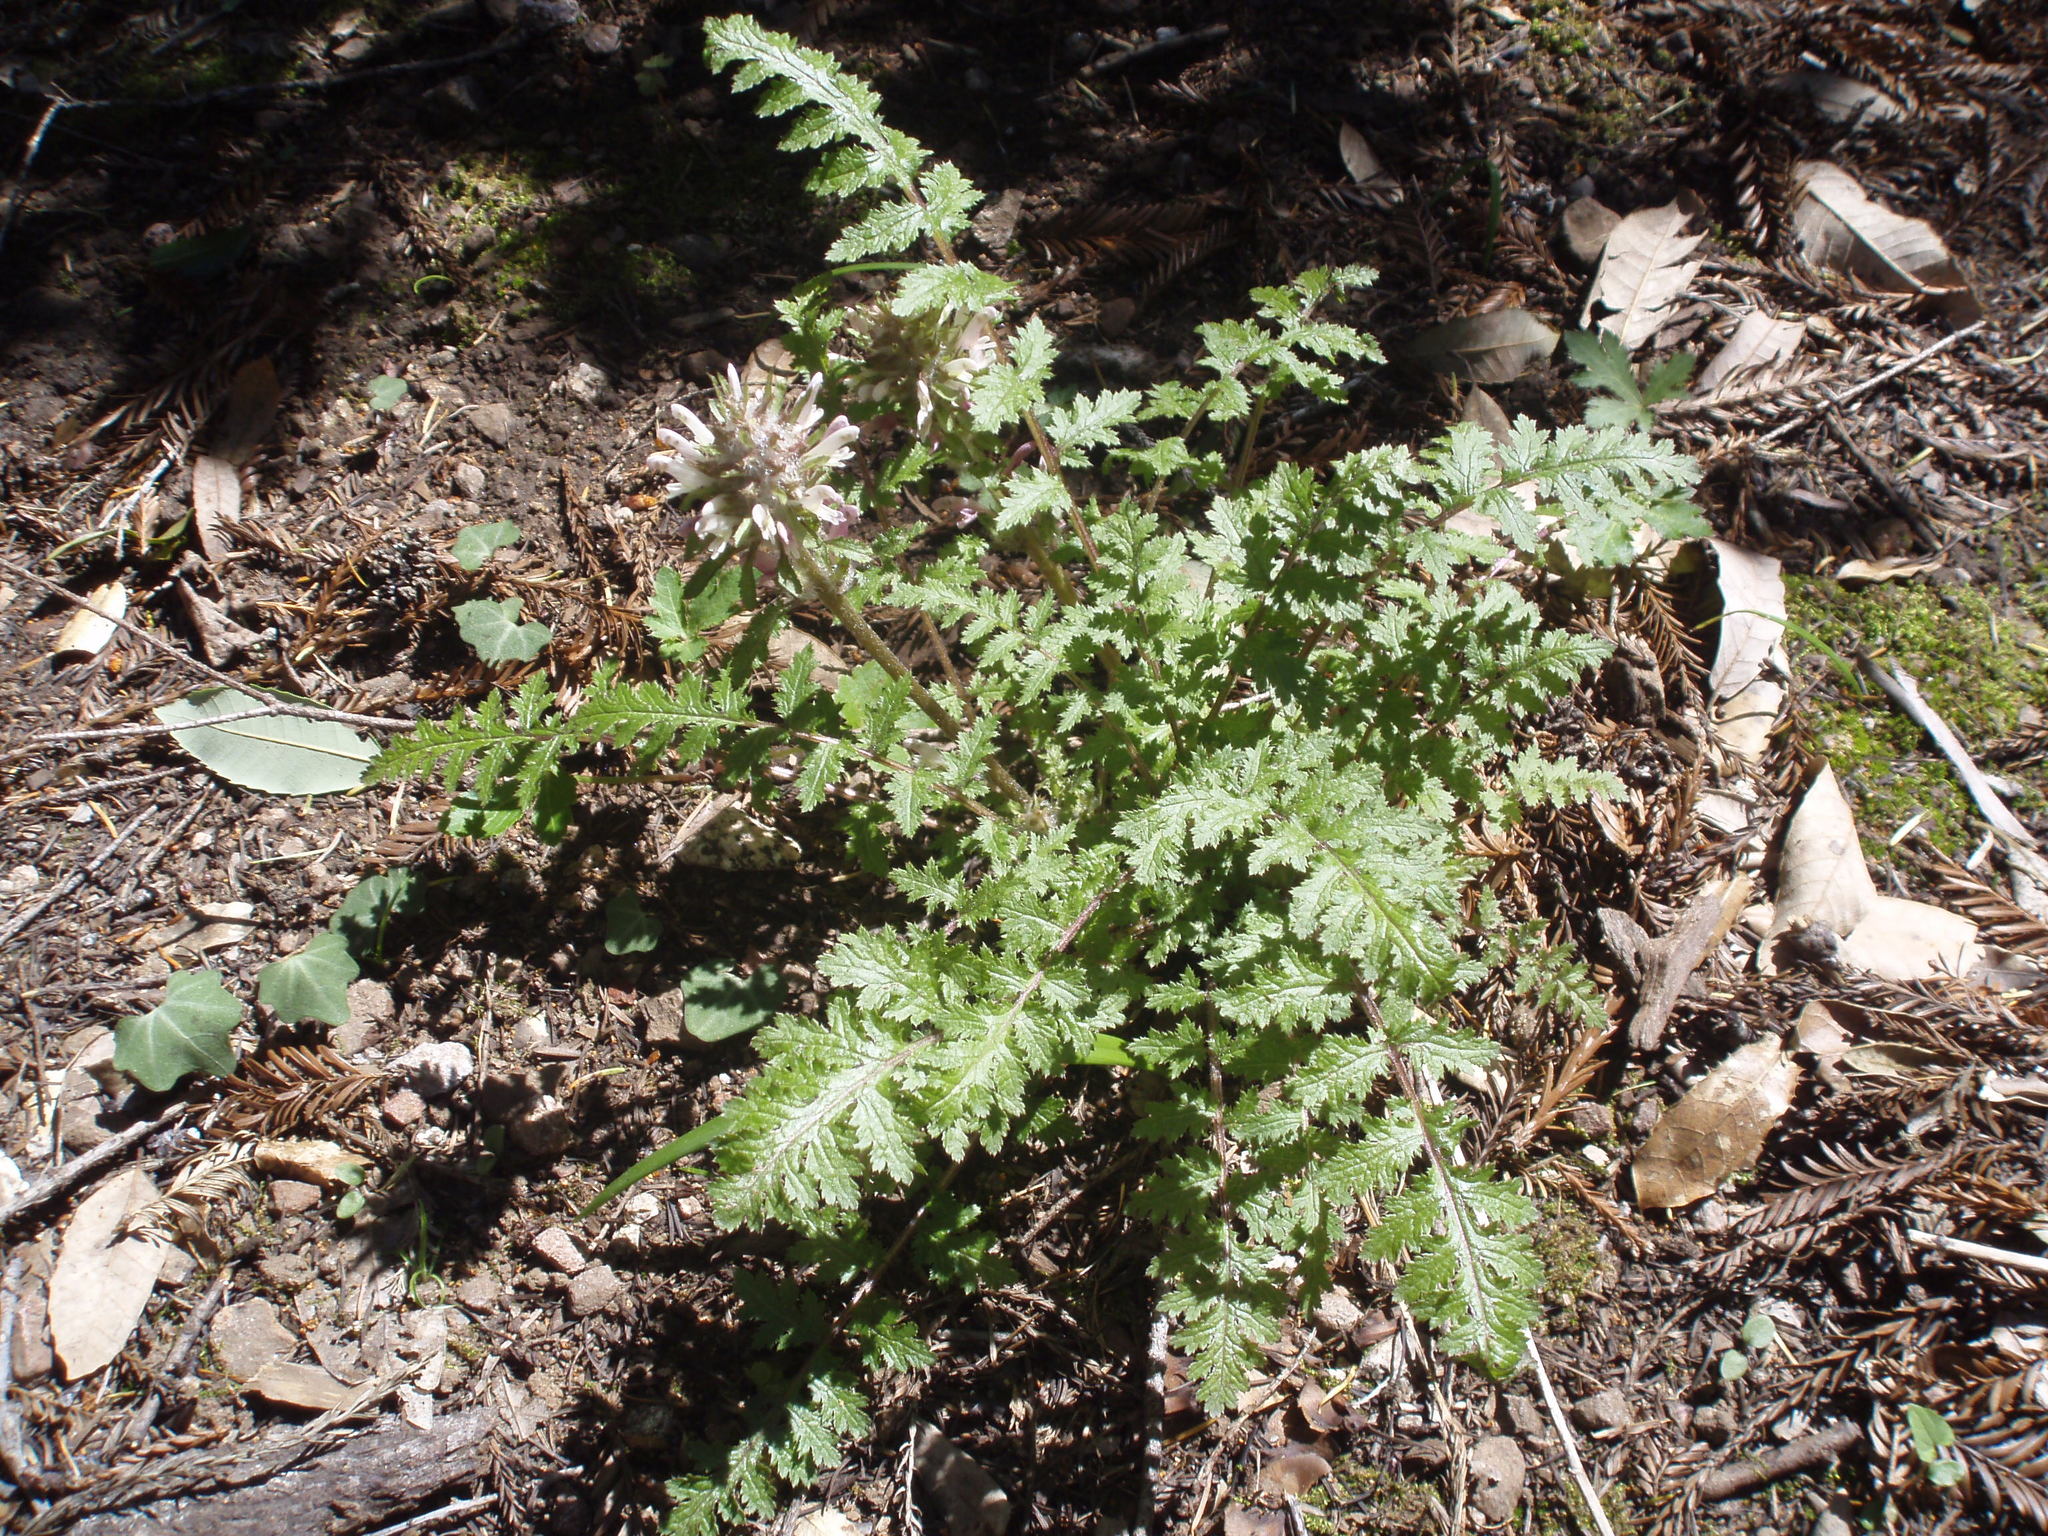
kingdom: Plantae
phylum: Tracheophyta
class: Magnoliopsida
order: Lamiales
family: Orobanchaceae
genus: Pedicularis
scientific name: Pedicularis dudleyi
